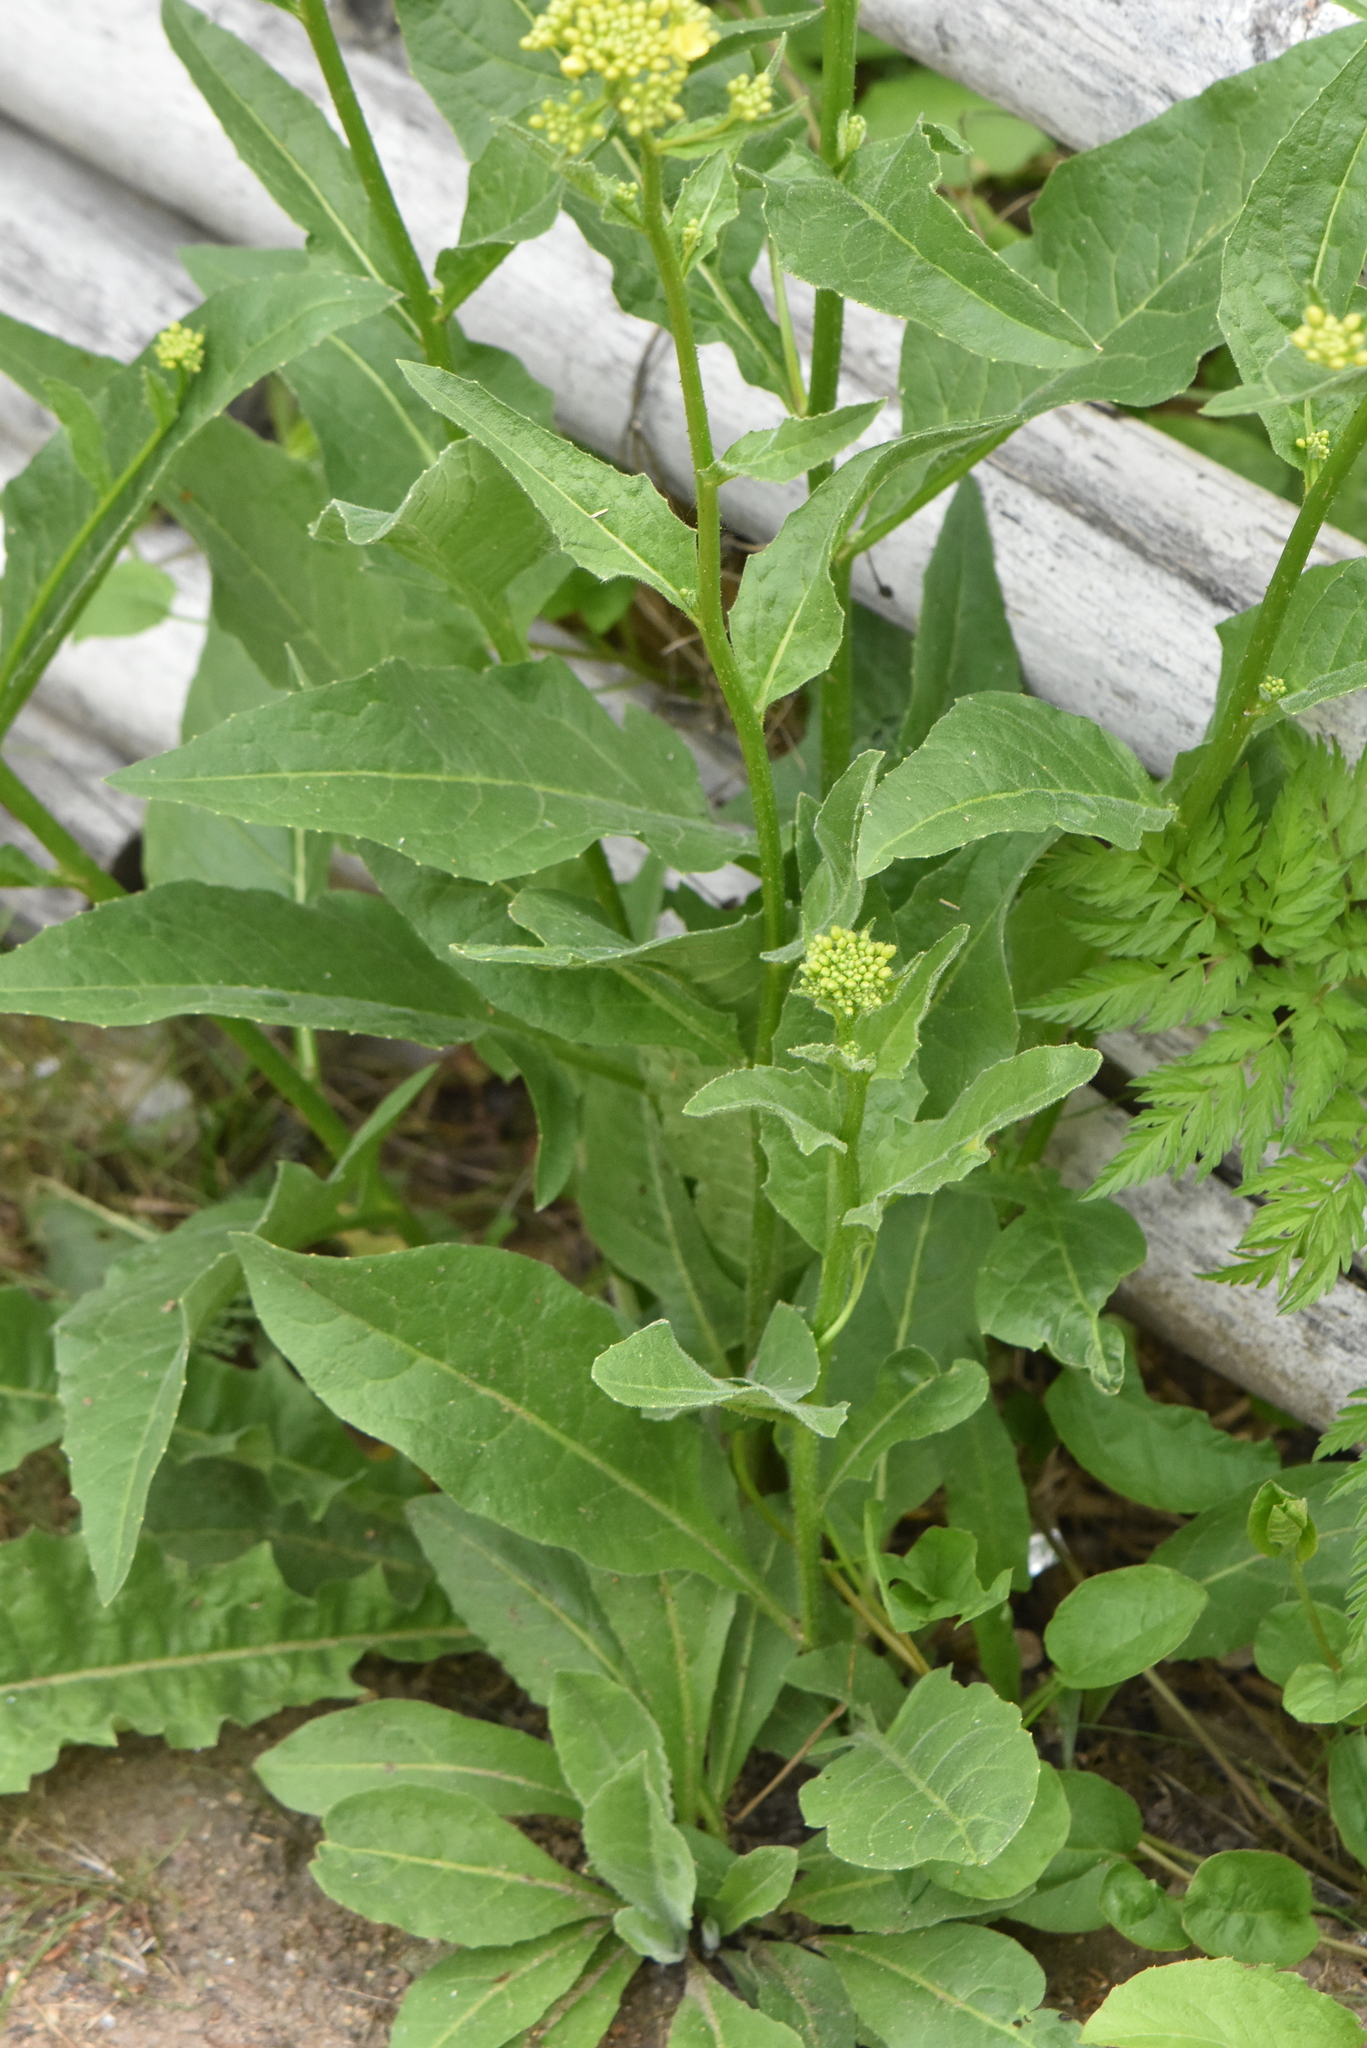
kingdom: Plantae
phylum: Tracheophyta
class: Magnoliopsida
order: Brassicales
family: Brassicaceae
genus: Bunias
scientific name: Bunias orientalis
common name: Warty-cabbage
